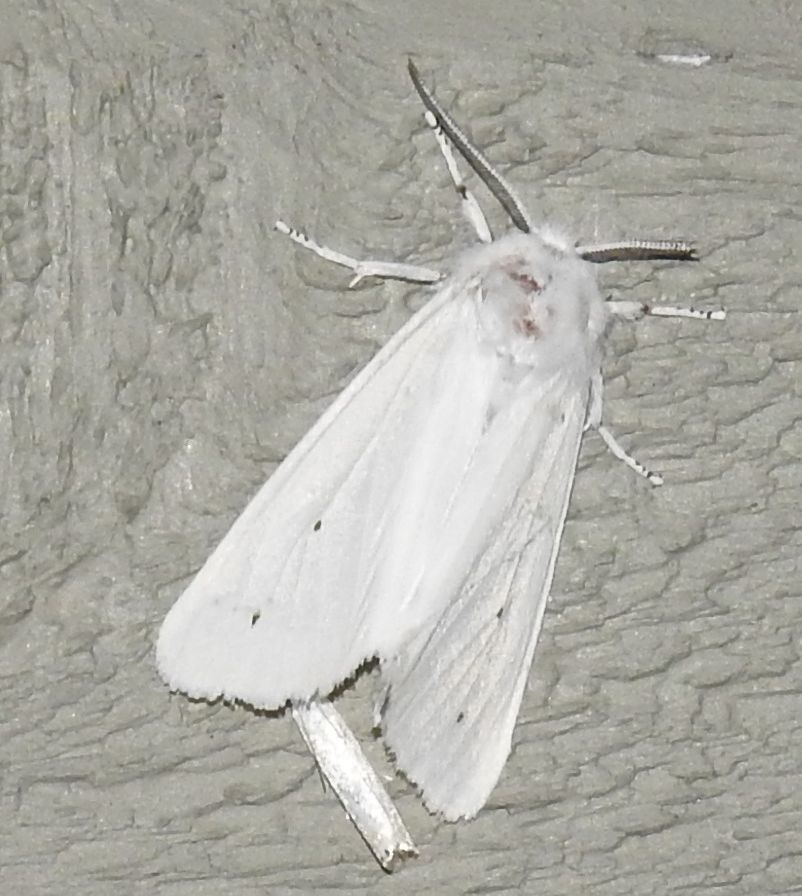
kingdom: Animalia
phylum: Arthropoda
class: Insecta
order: Lepidoptera
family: Erebidae
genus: Spilosoma
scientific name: Spilosoma virginica
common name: Virginia tiger moth
